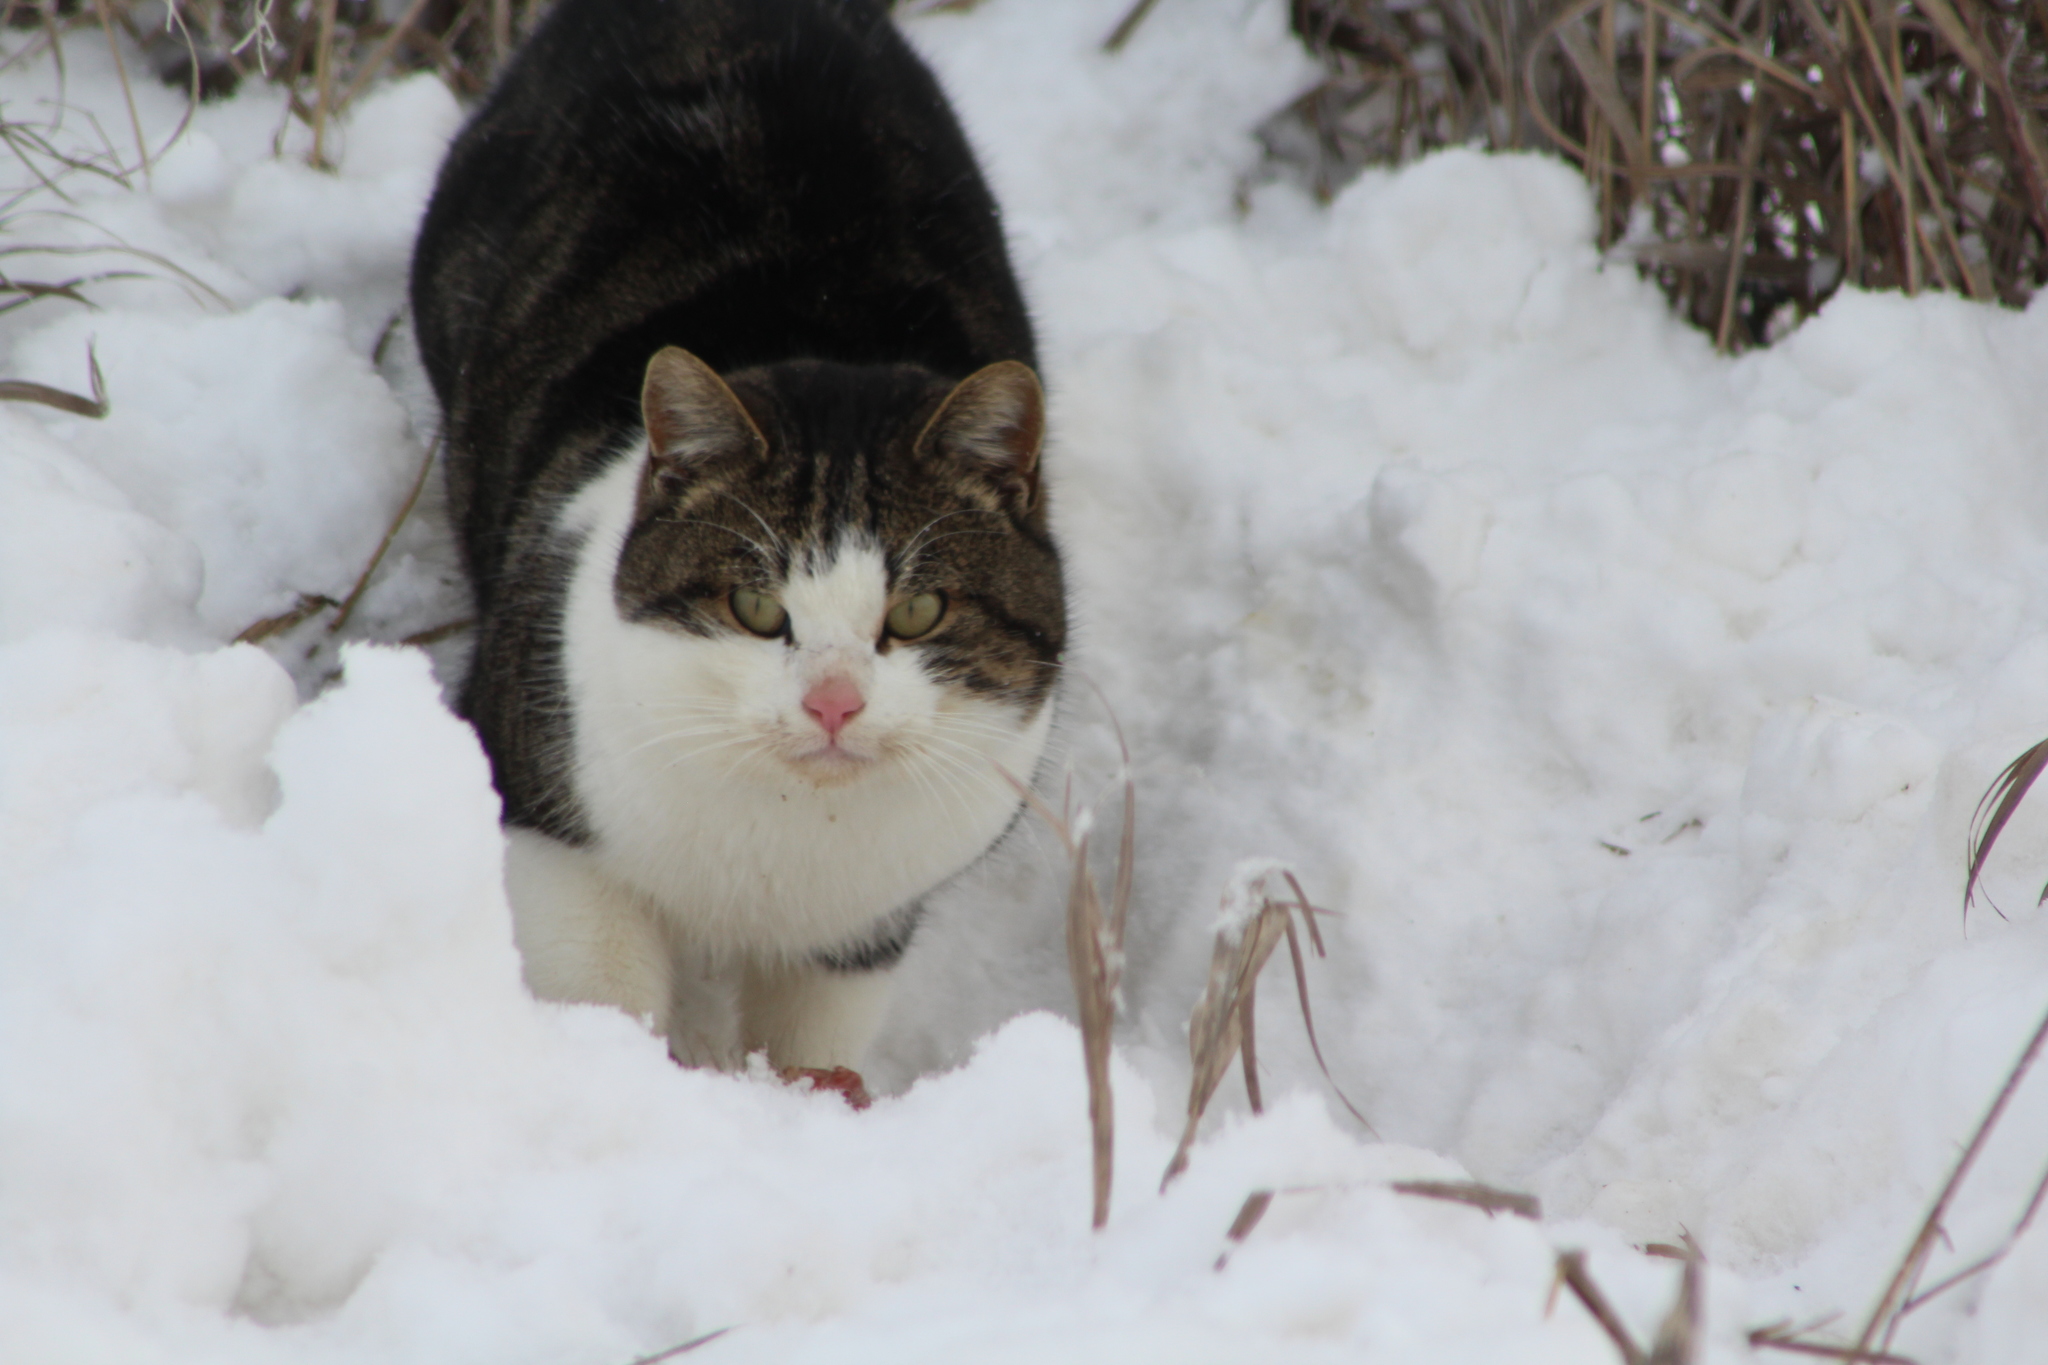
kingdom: Animalia
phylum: Chordata
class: Mammalia
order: Carnivora
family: Felidae
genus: Felis
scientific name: Felis catus
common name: Domestic cat
